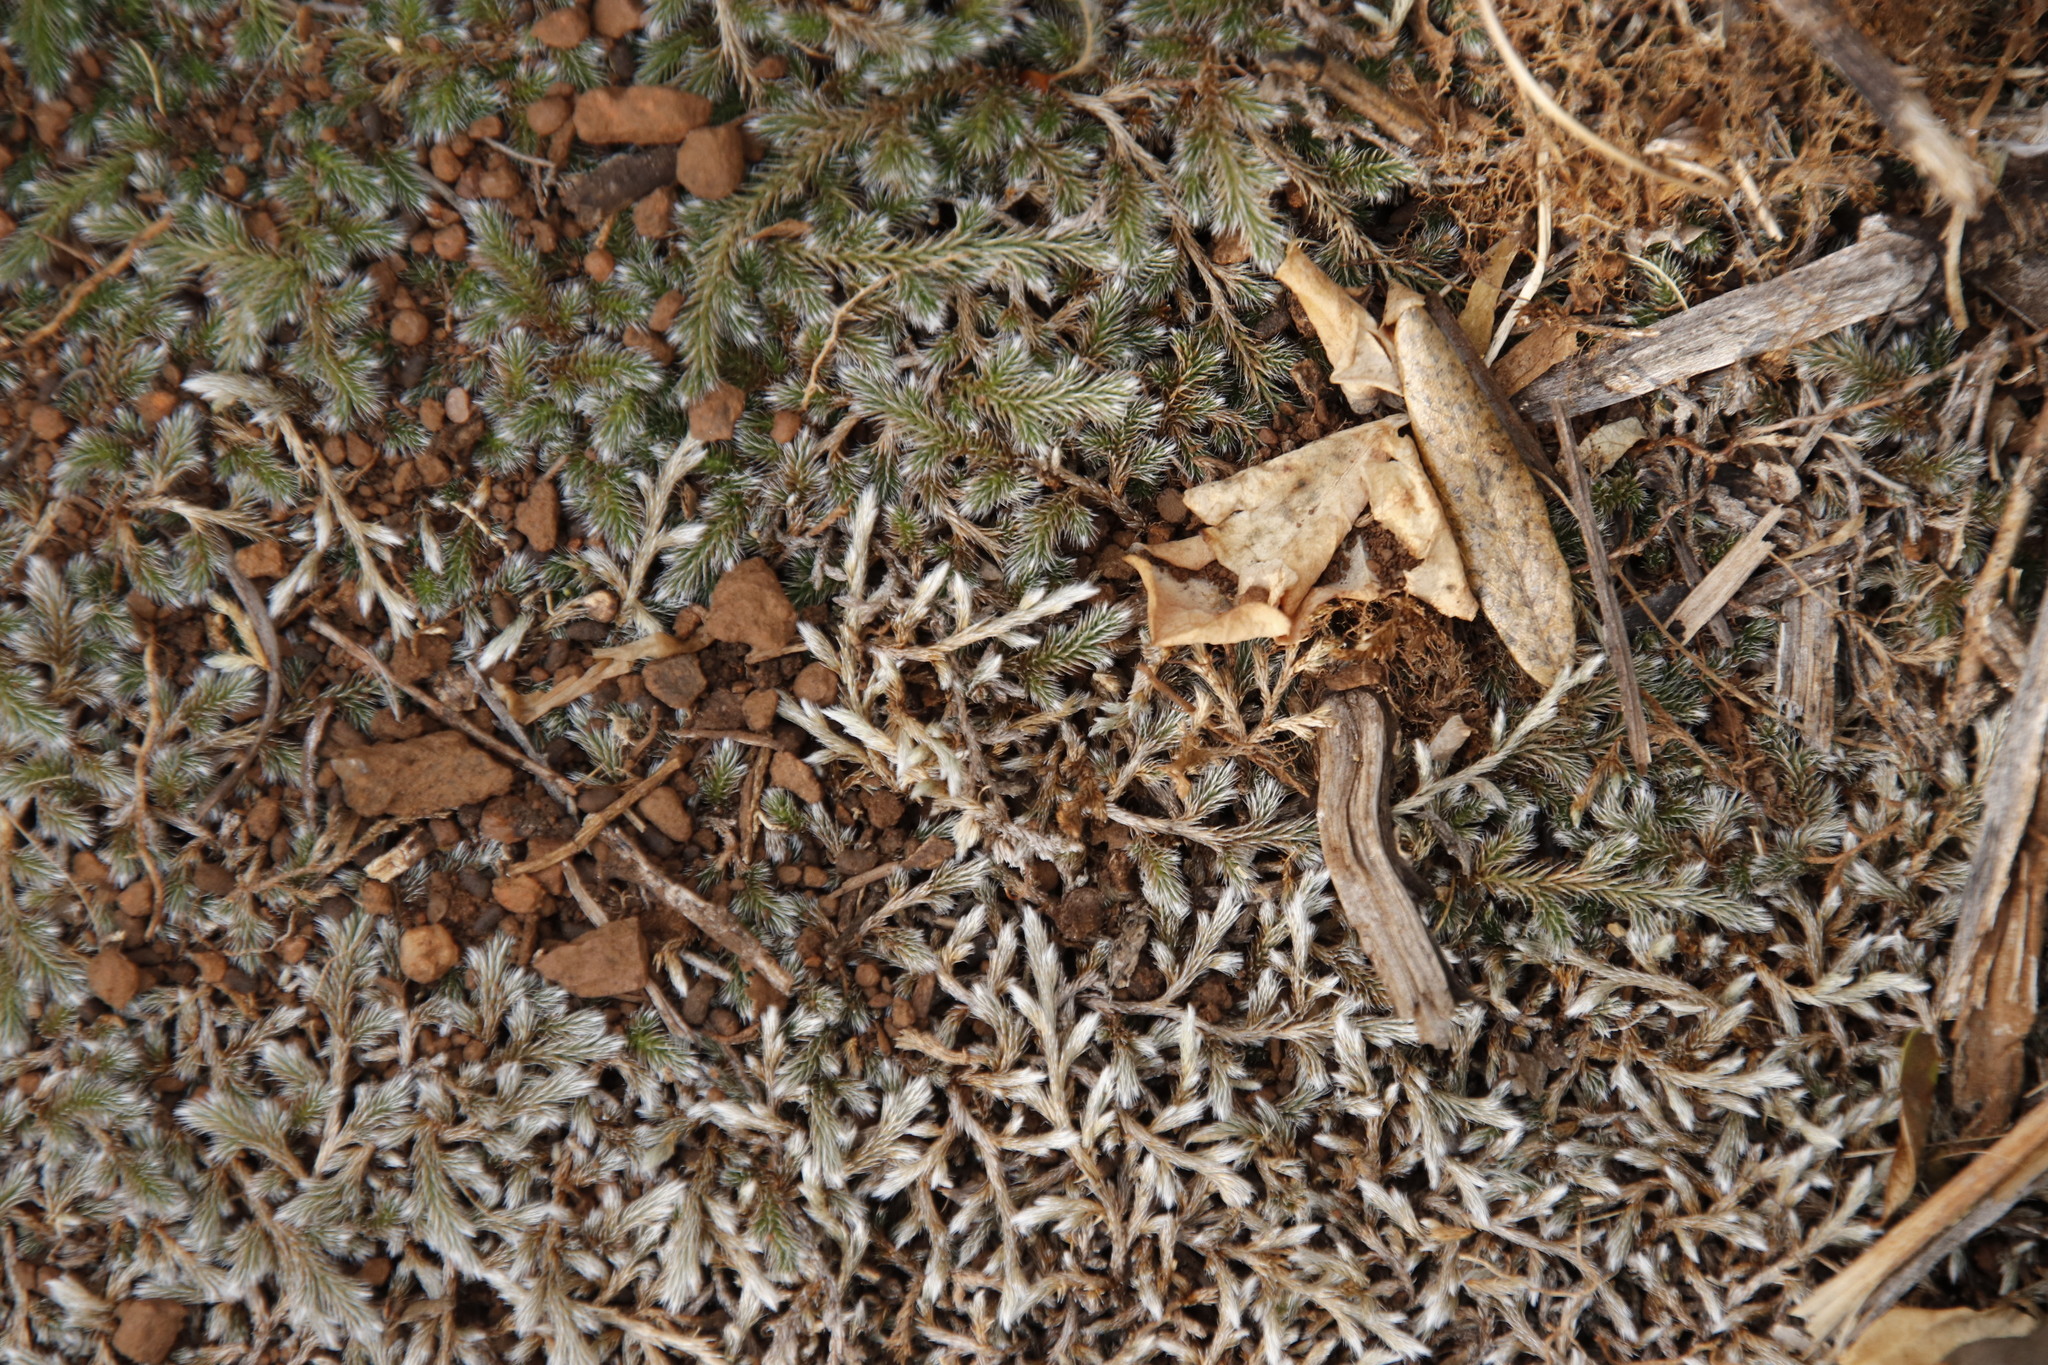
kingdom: Plantae
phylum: Tracheophyta
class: Lycopodiopsida
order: Selaginellales
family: Selaginellaceae
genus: Selaginella
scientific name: Selaginella dregei
